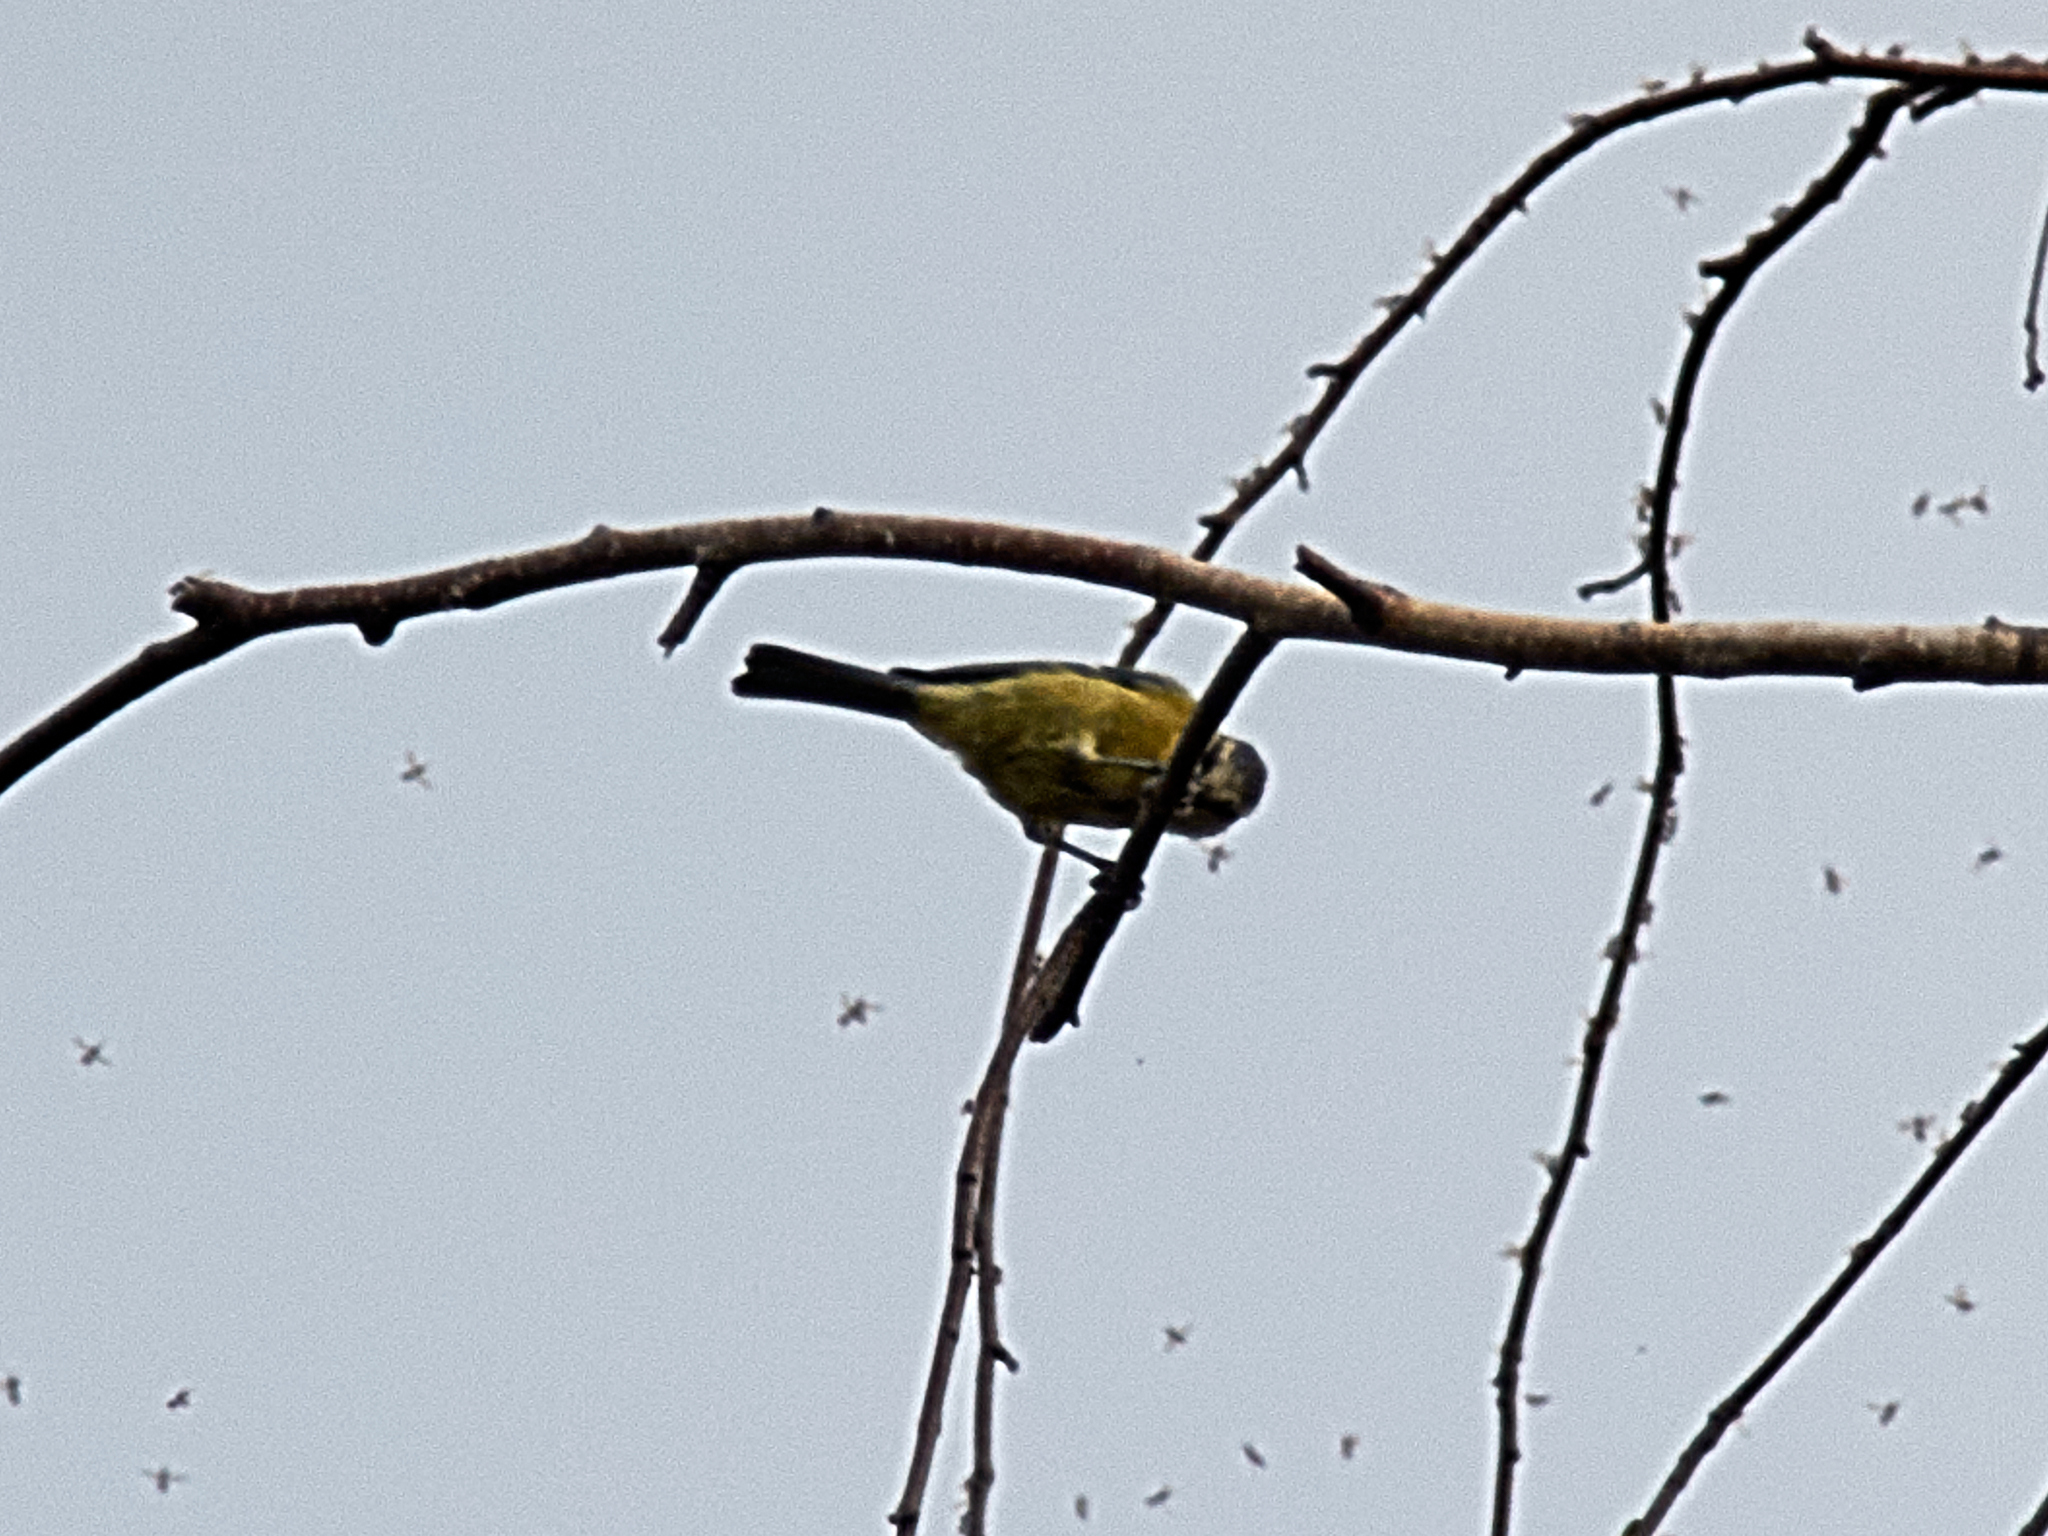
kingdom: Animalia
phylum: Chordata
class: Aves
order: Passeriformes
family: Paridae
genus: Cyanistes
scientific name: Cyanistes caeruleus
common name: Eurasian blue tit
